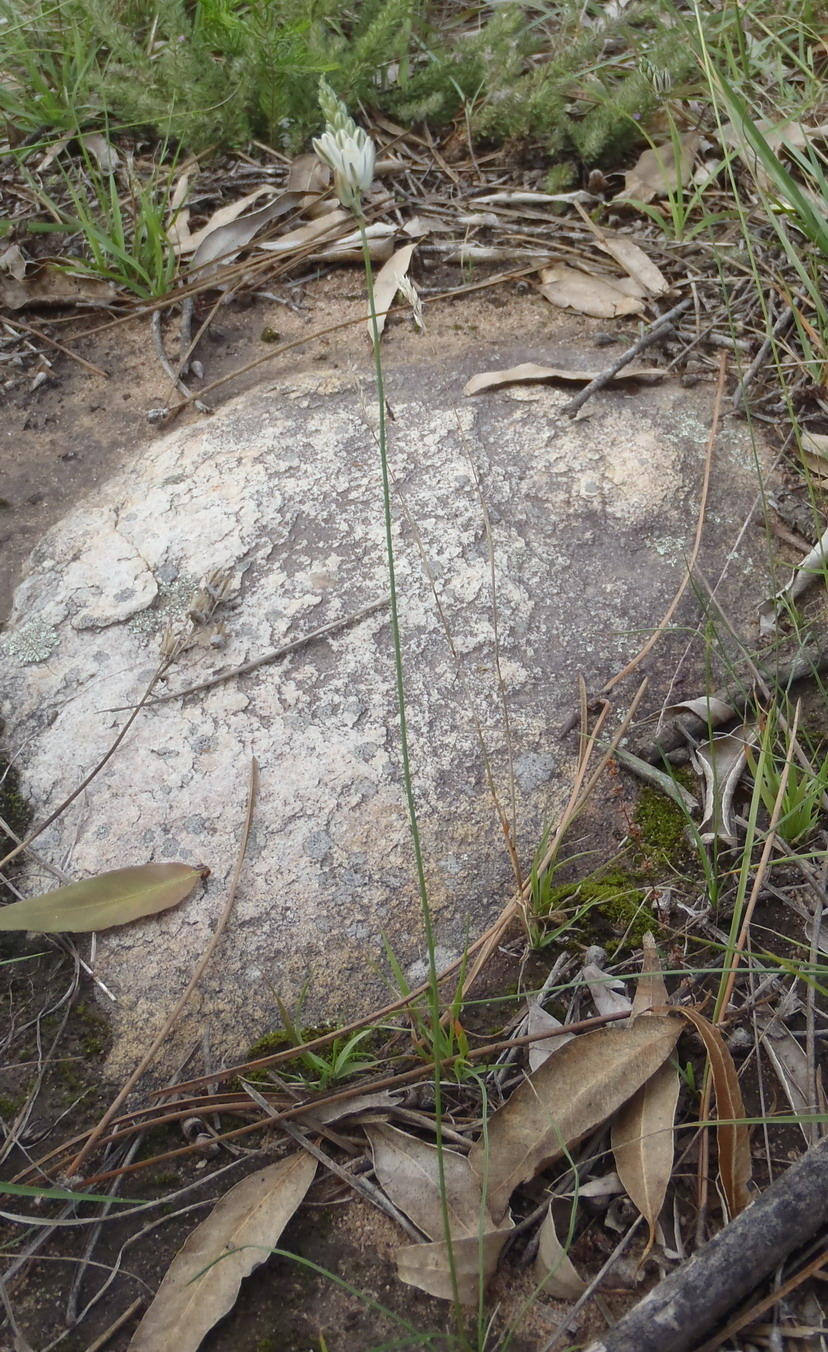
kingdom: Plantae
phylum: Tracheophyta
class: Liliopsida
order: Asparagales
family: Asparagaceae
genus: Ornithogalum
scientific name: Ornithogalum graminifolium
